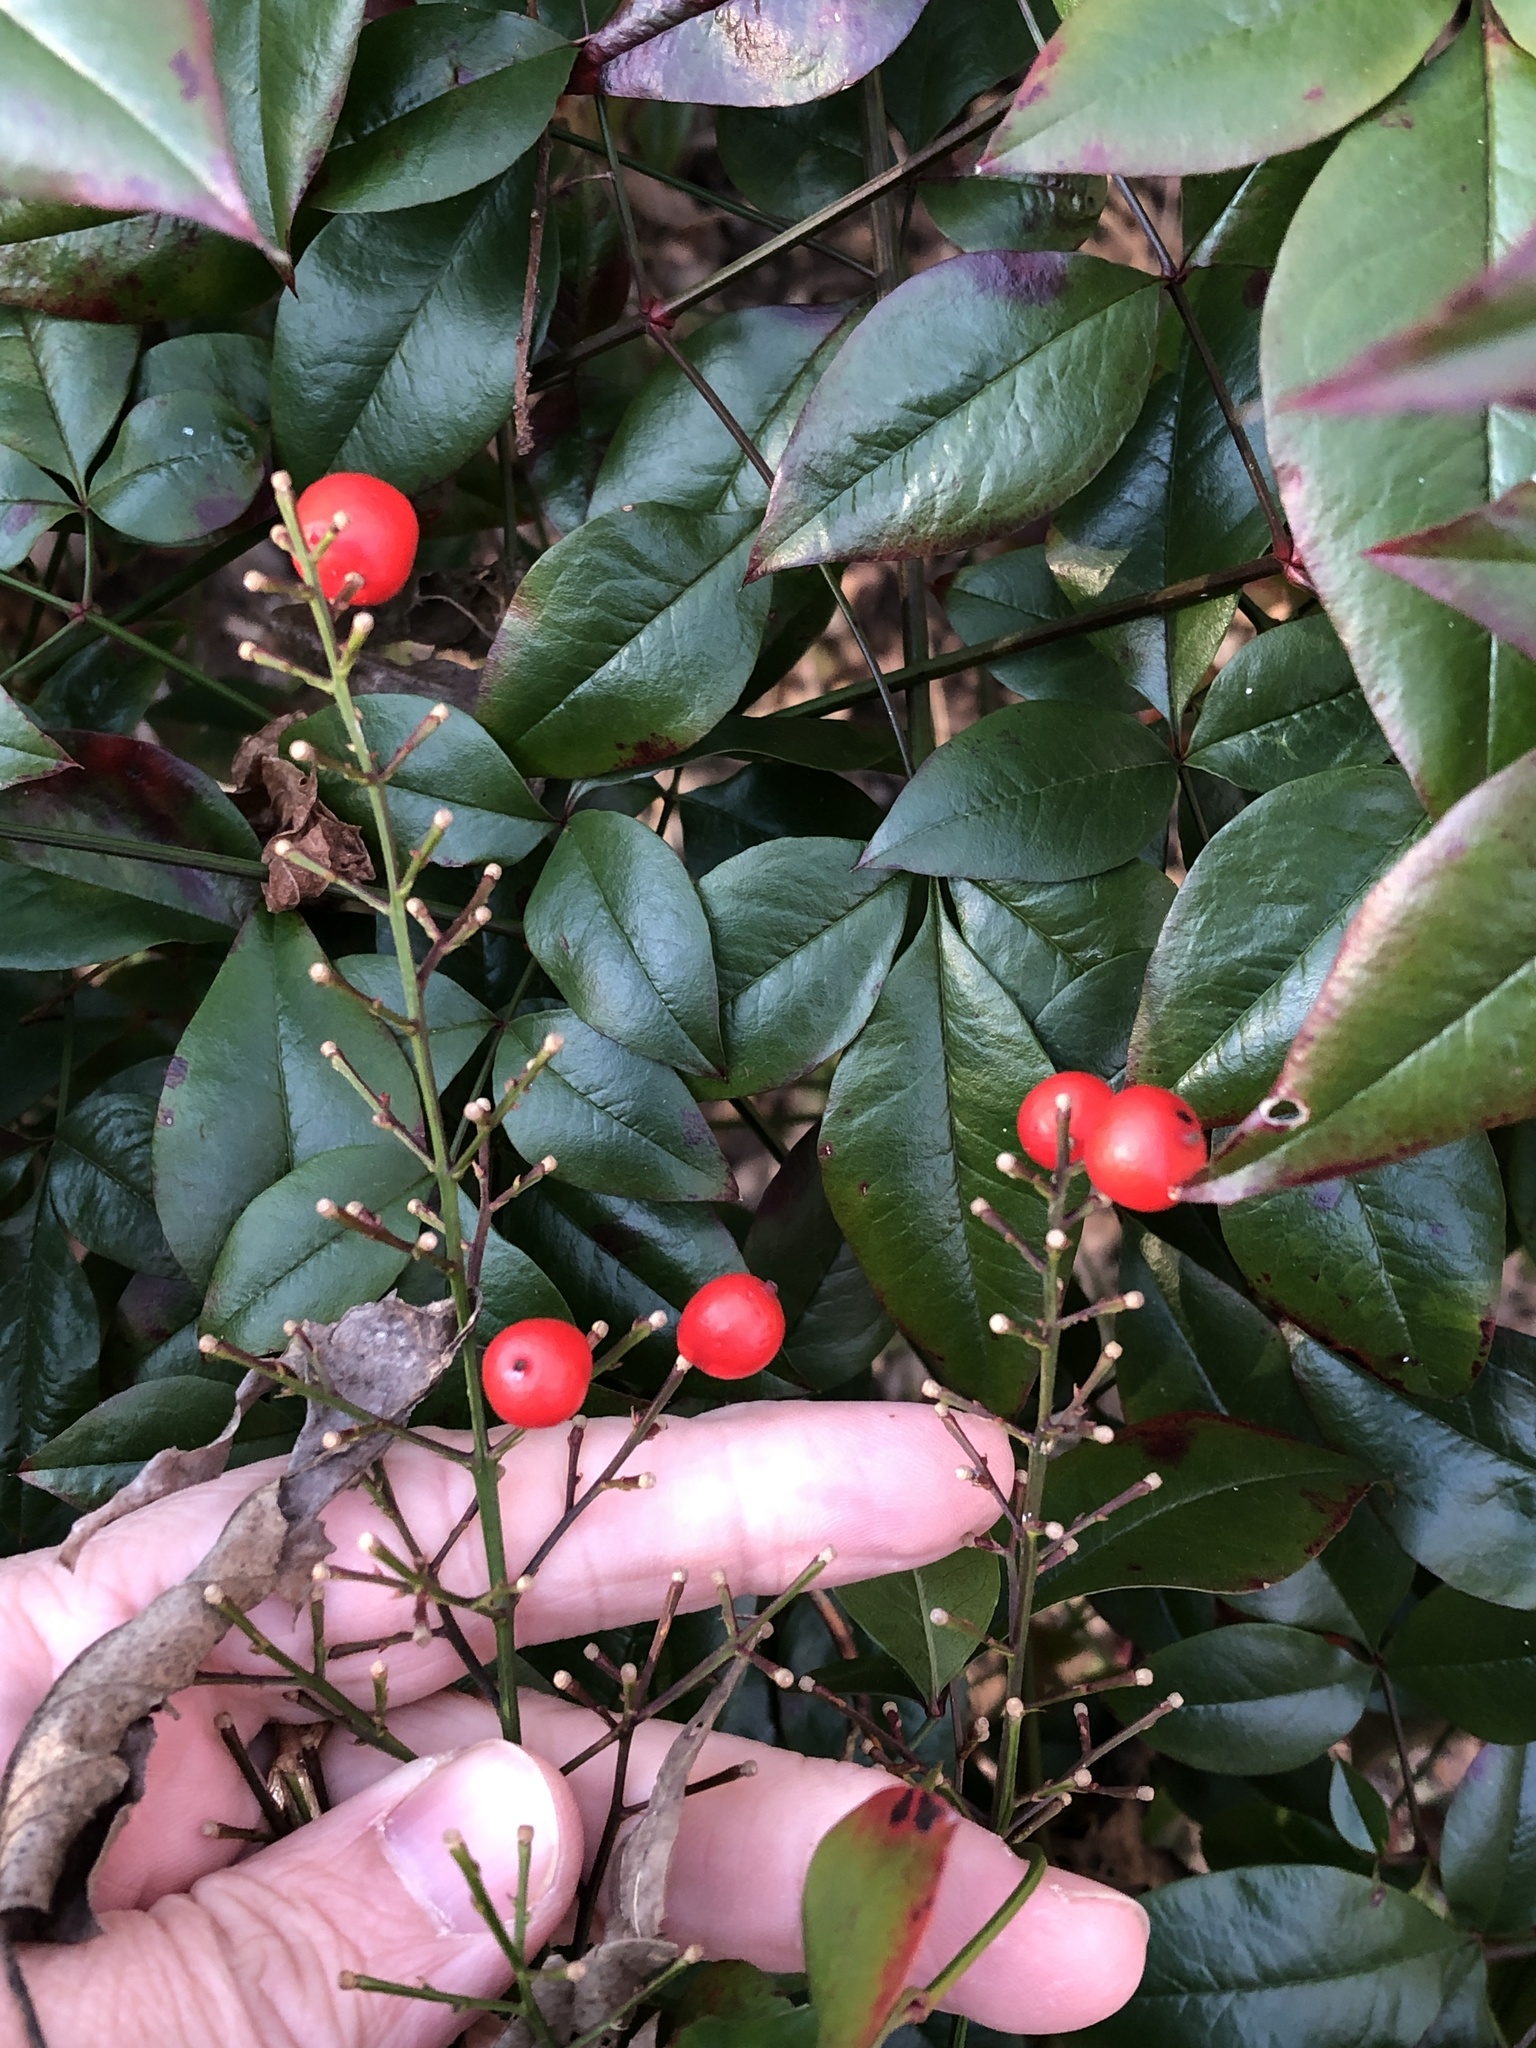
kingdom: Plantae
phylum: Tracheophyta
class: Magnoliopsida
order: Ranunculales
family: Berberidaceae
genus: Nandina
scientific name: Nandina domestica
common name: Sacred bamboo
